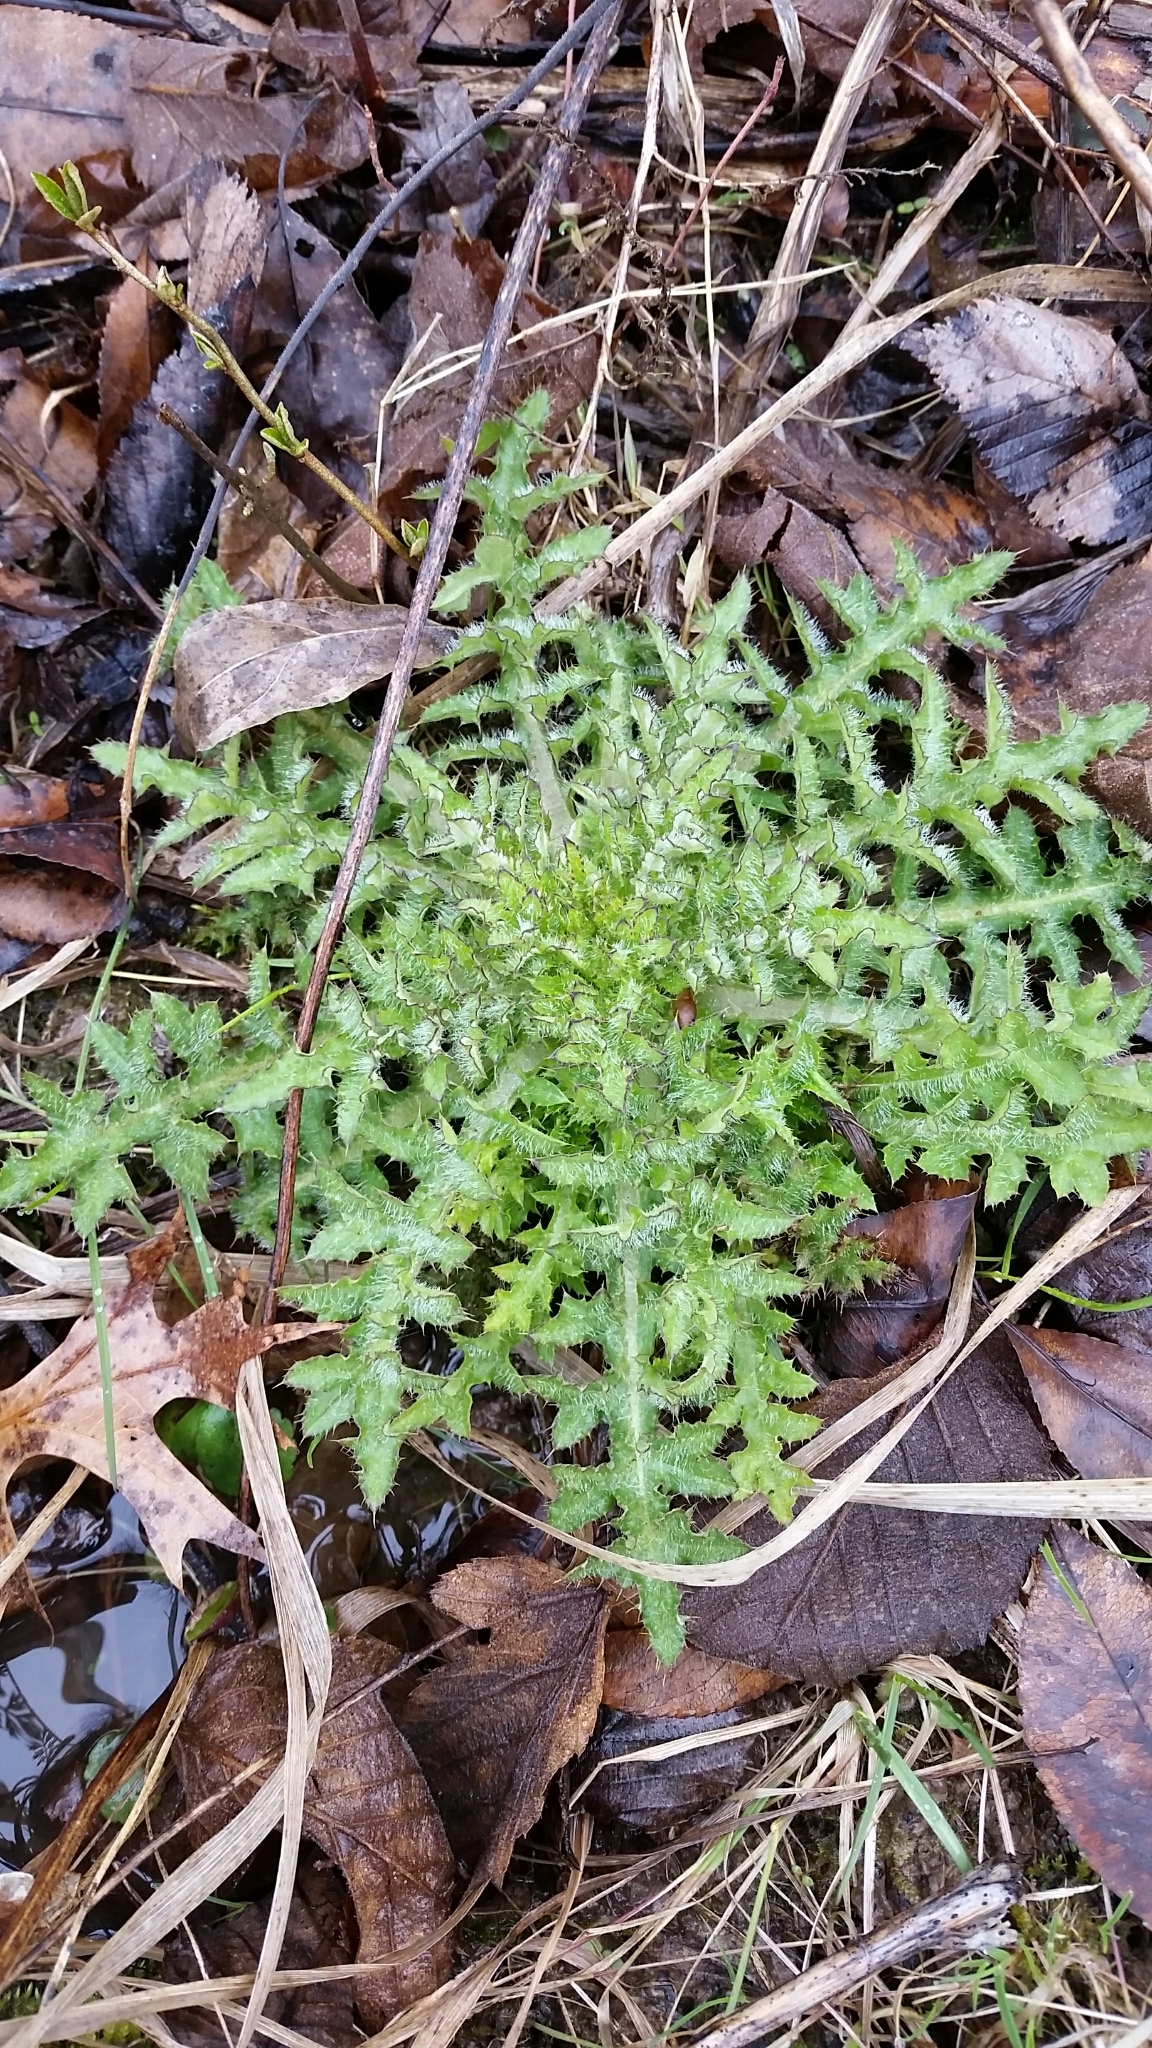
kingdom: Plantae
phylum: Tracheophyta
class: Magnoliopsida
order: Asterales
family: Asteraceae
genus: Cirsium
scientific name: Cirsium pumilum
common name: Pasture thistle
